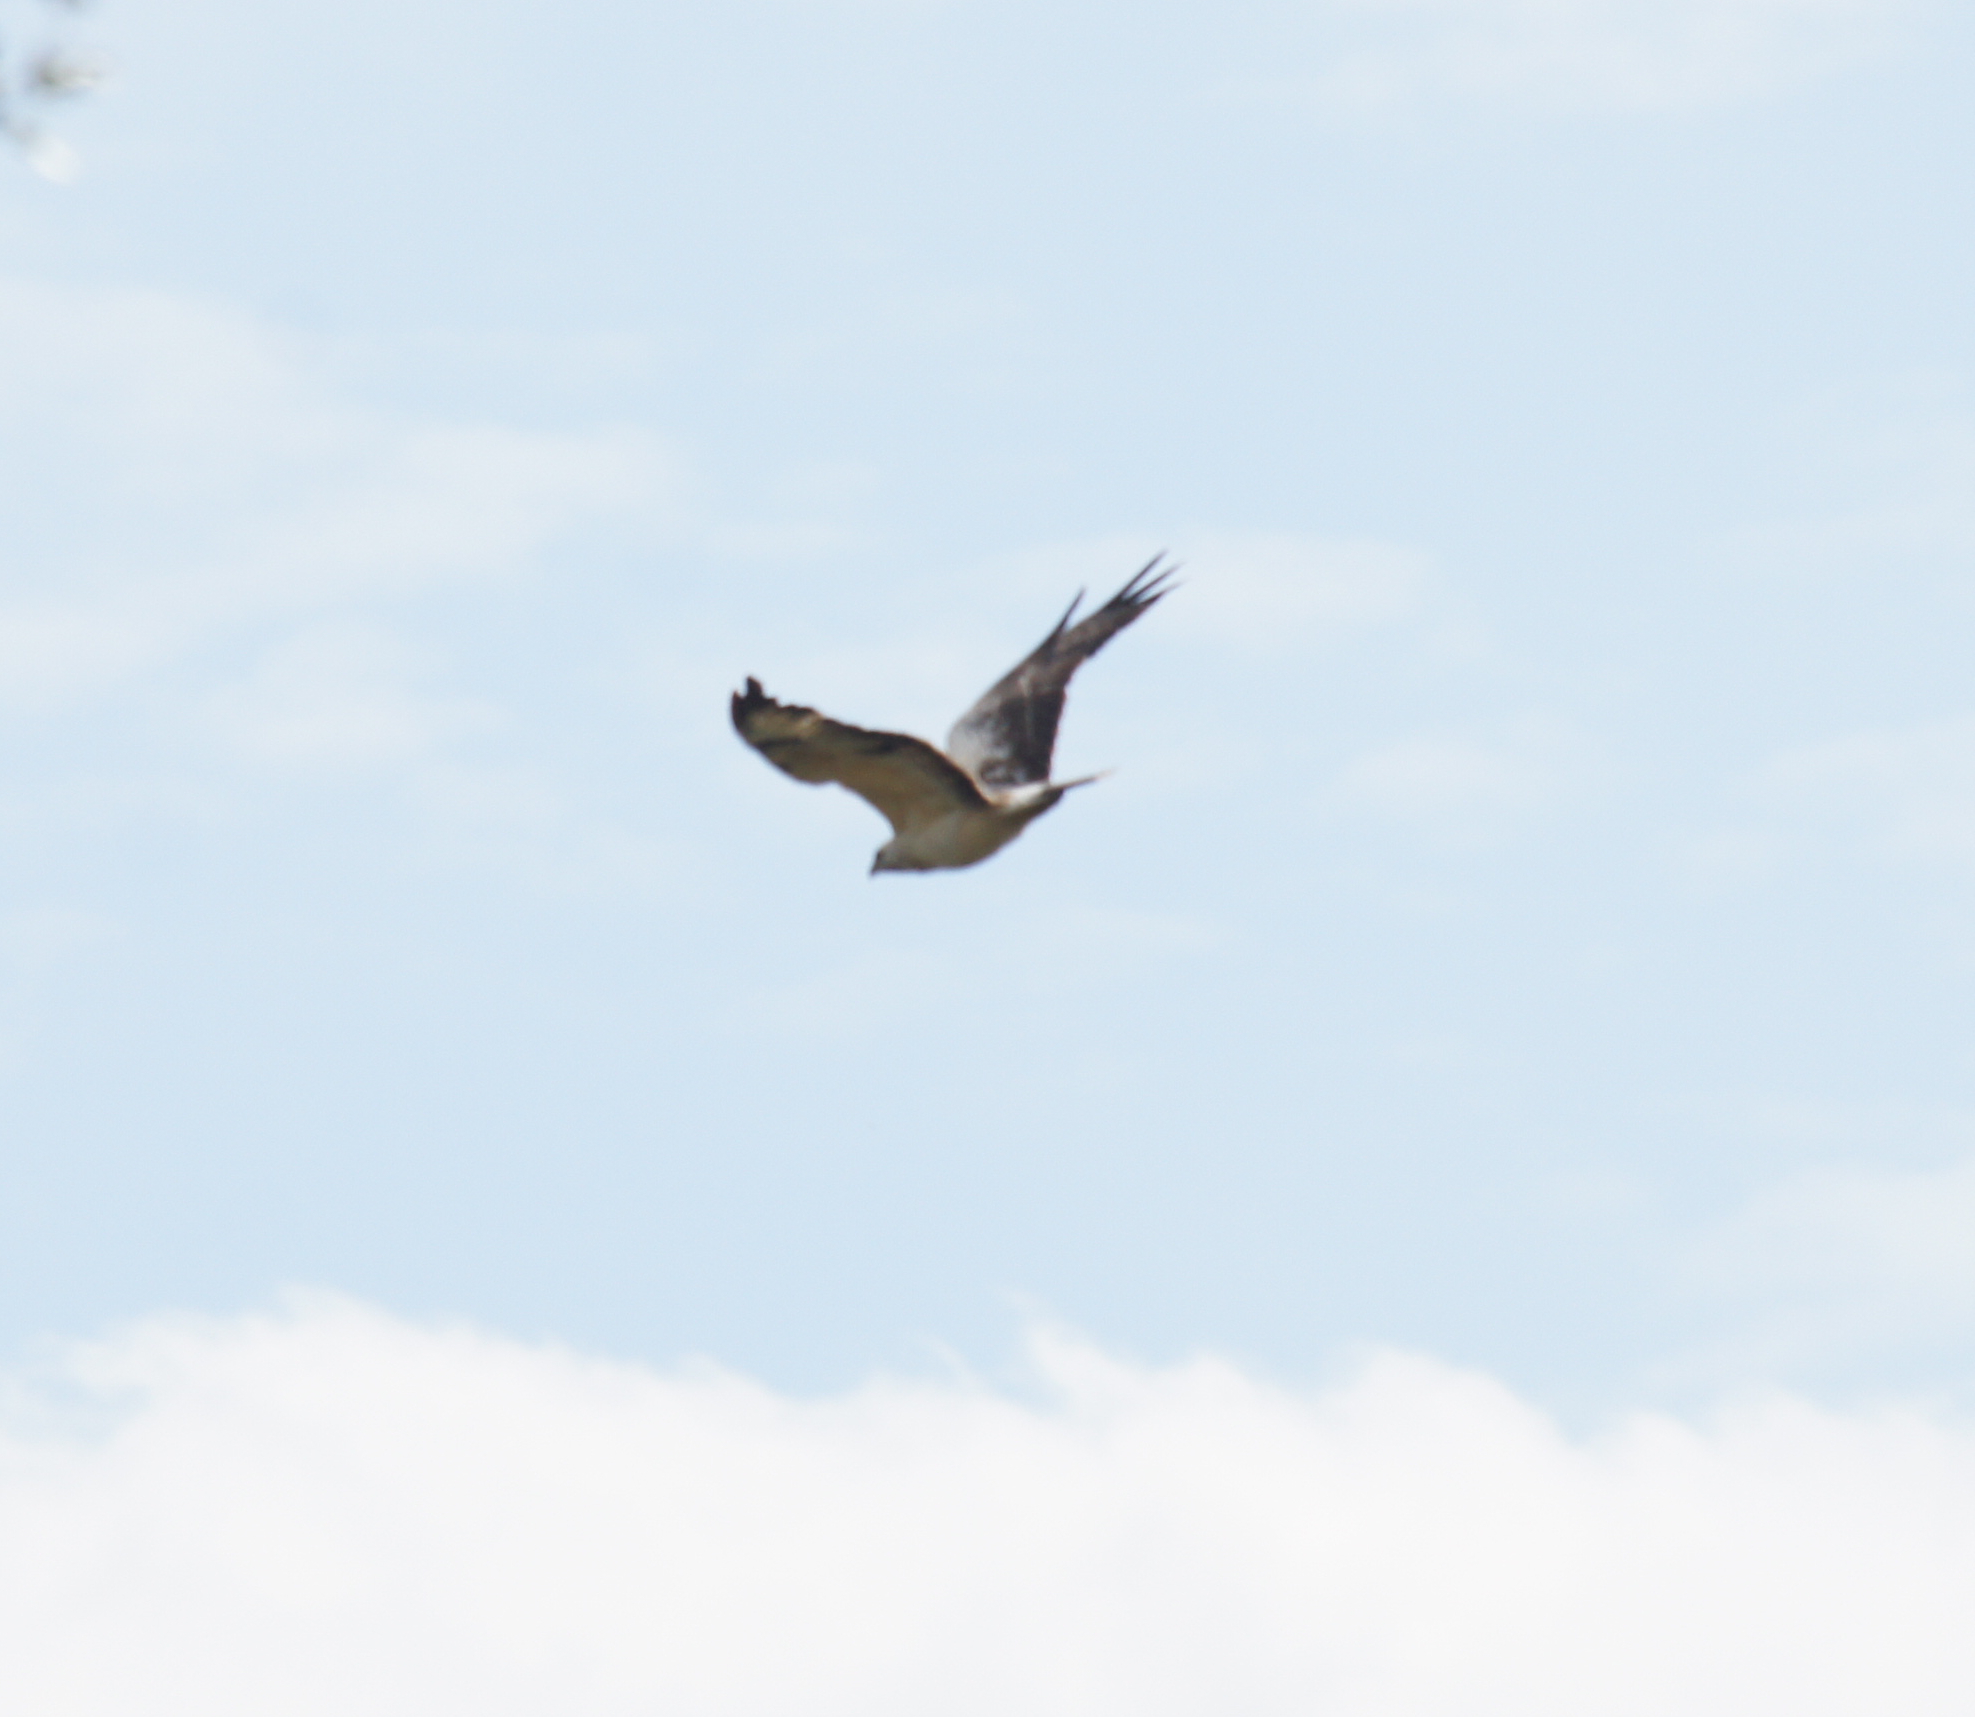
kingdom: Animalia
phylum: Chordata
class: Aves
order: Accipitriformes
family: Accipitridae
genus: Buteo
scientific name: Buteo buteo
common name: Common buzzard
